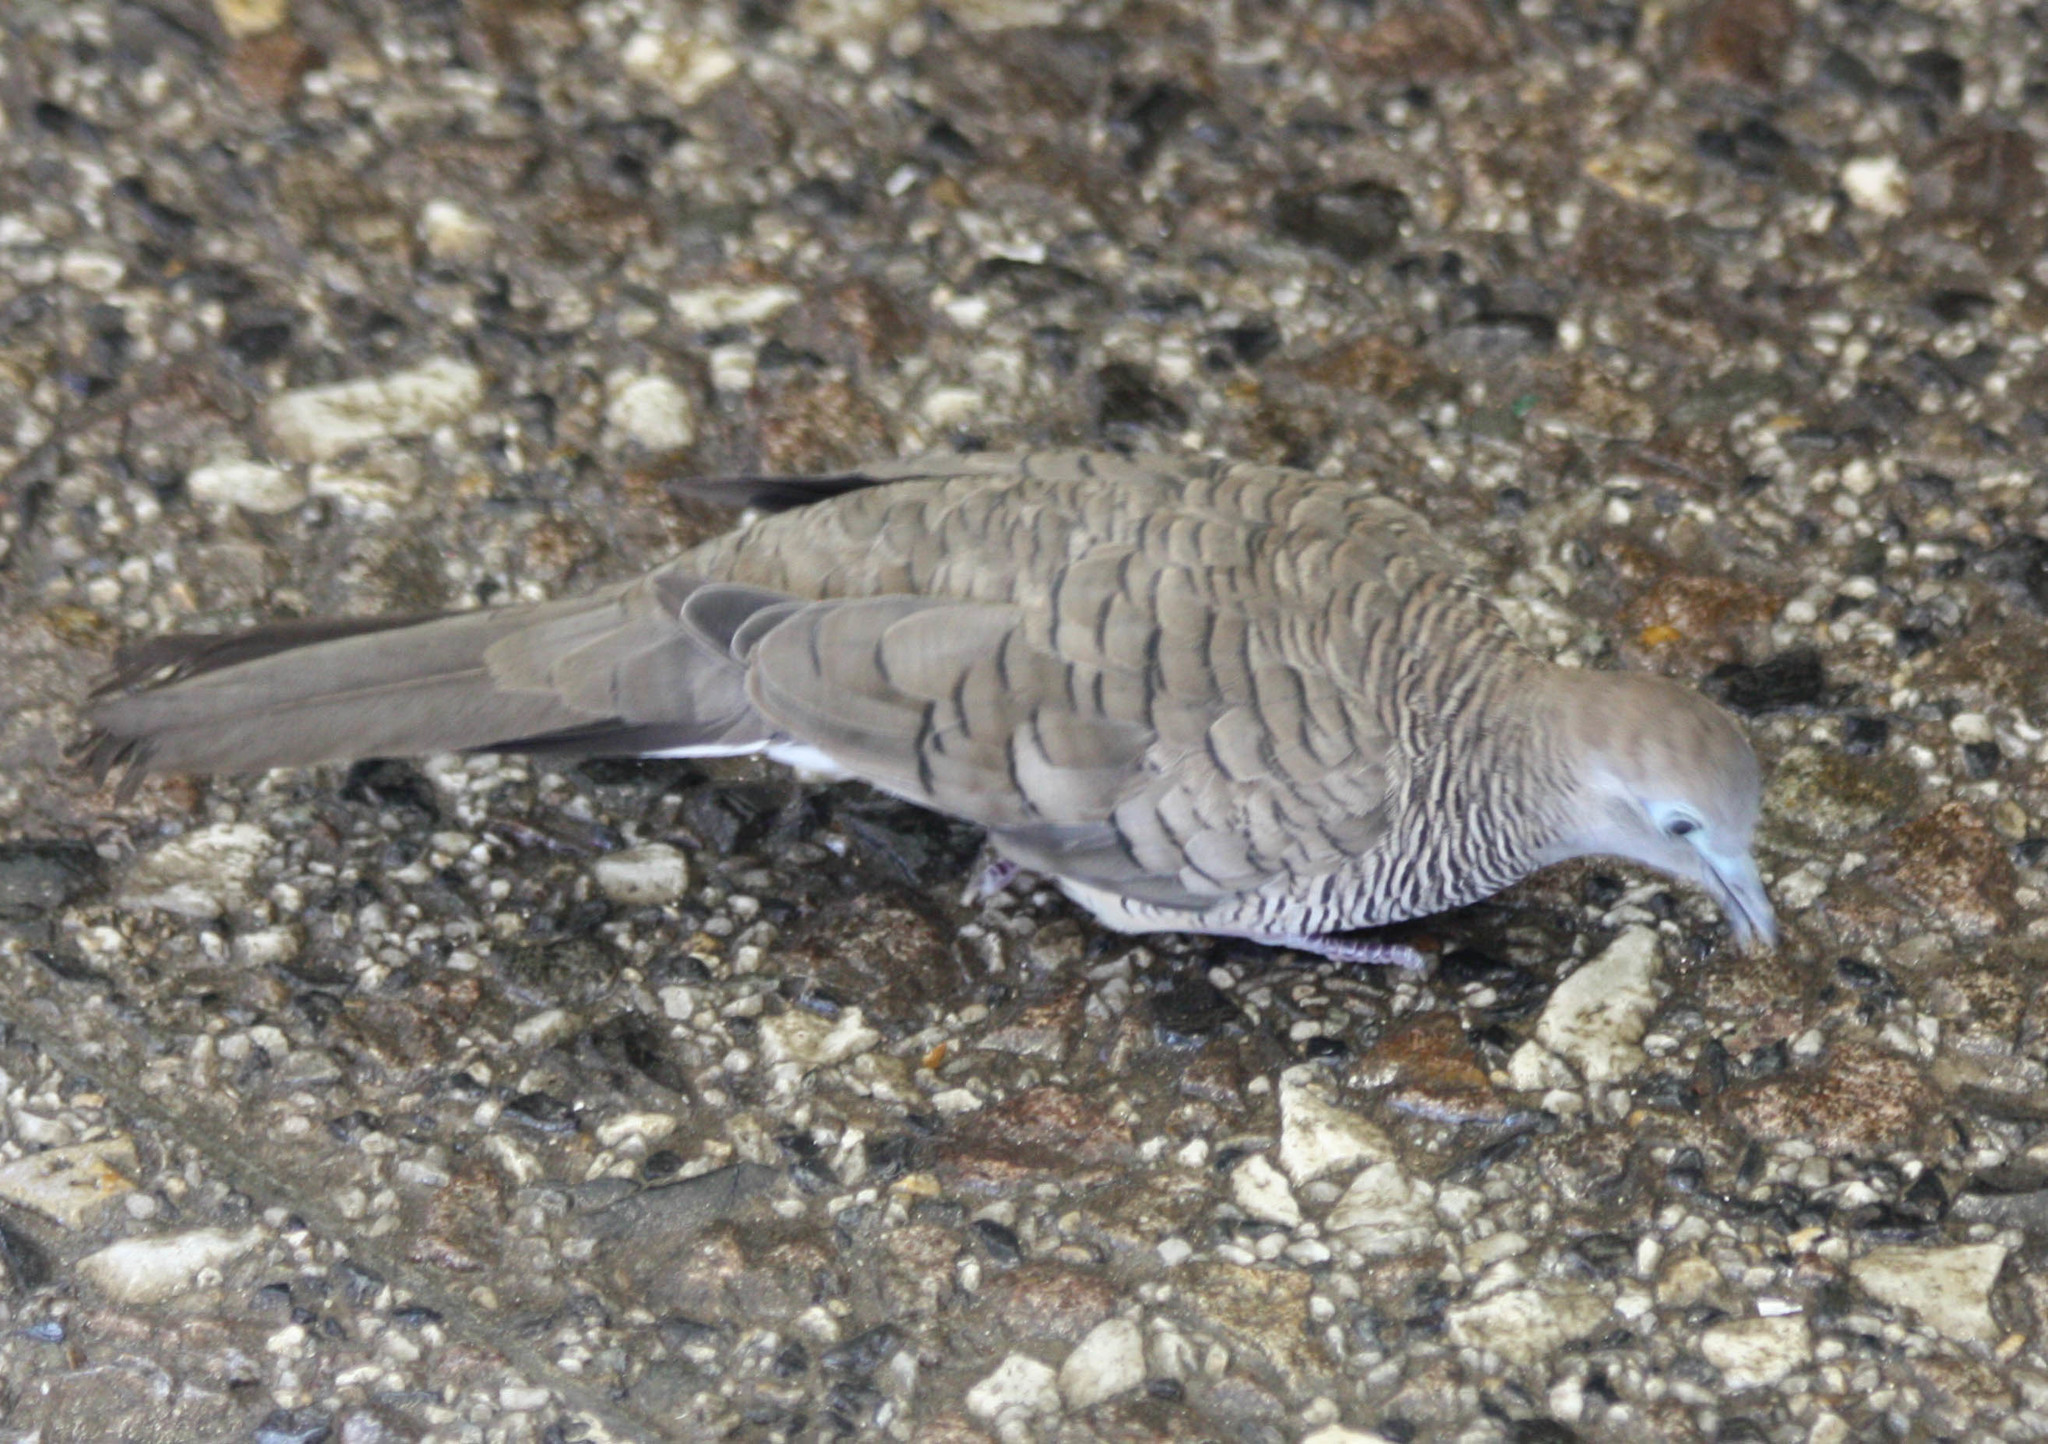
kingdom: Animalia
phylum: Chordata
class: Aves
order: Columbiformes
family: Columbidae
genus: Geopelia
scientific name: Geopelia striata
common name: Zebra dove
